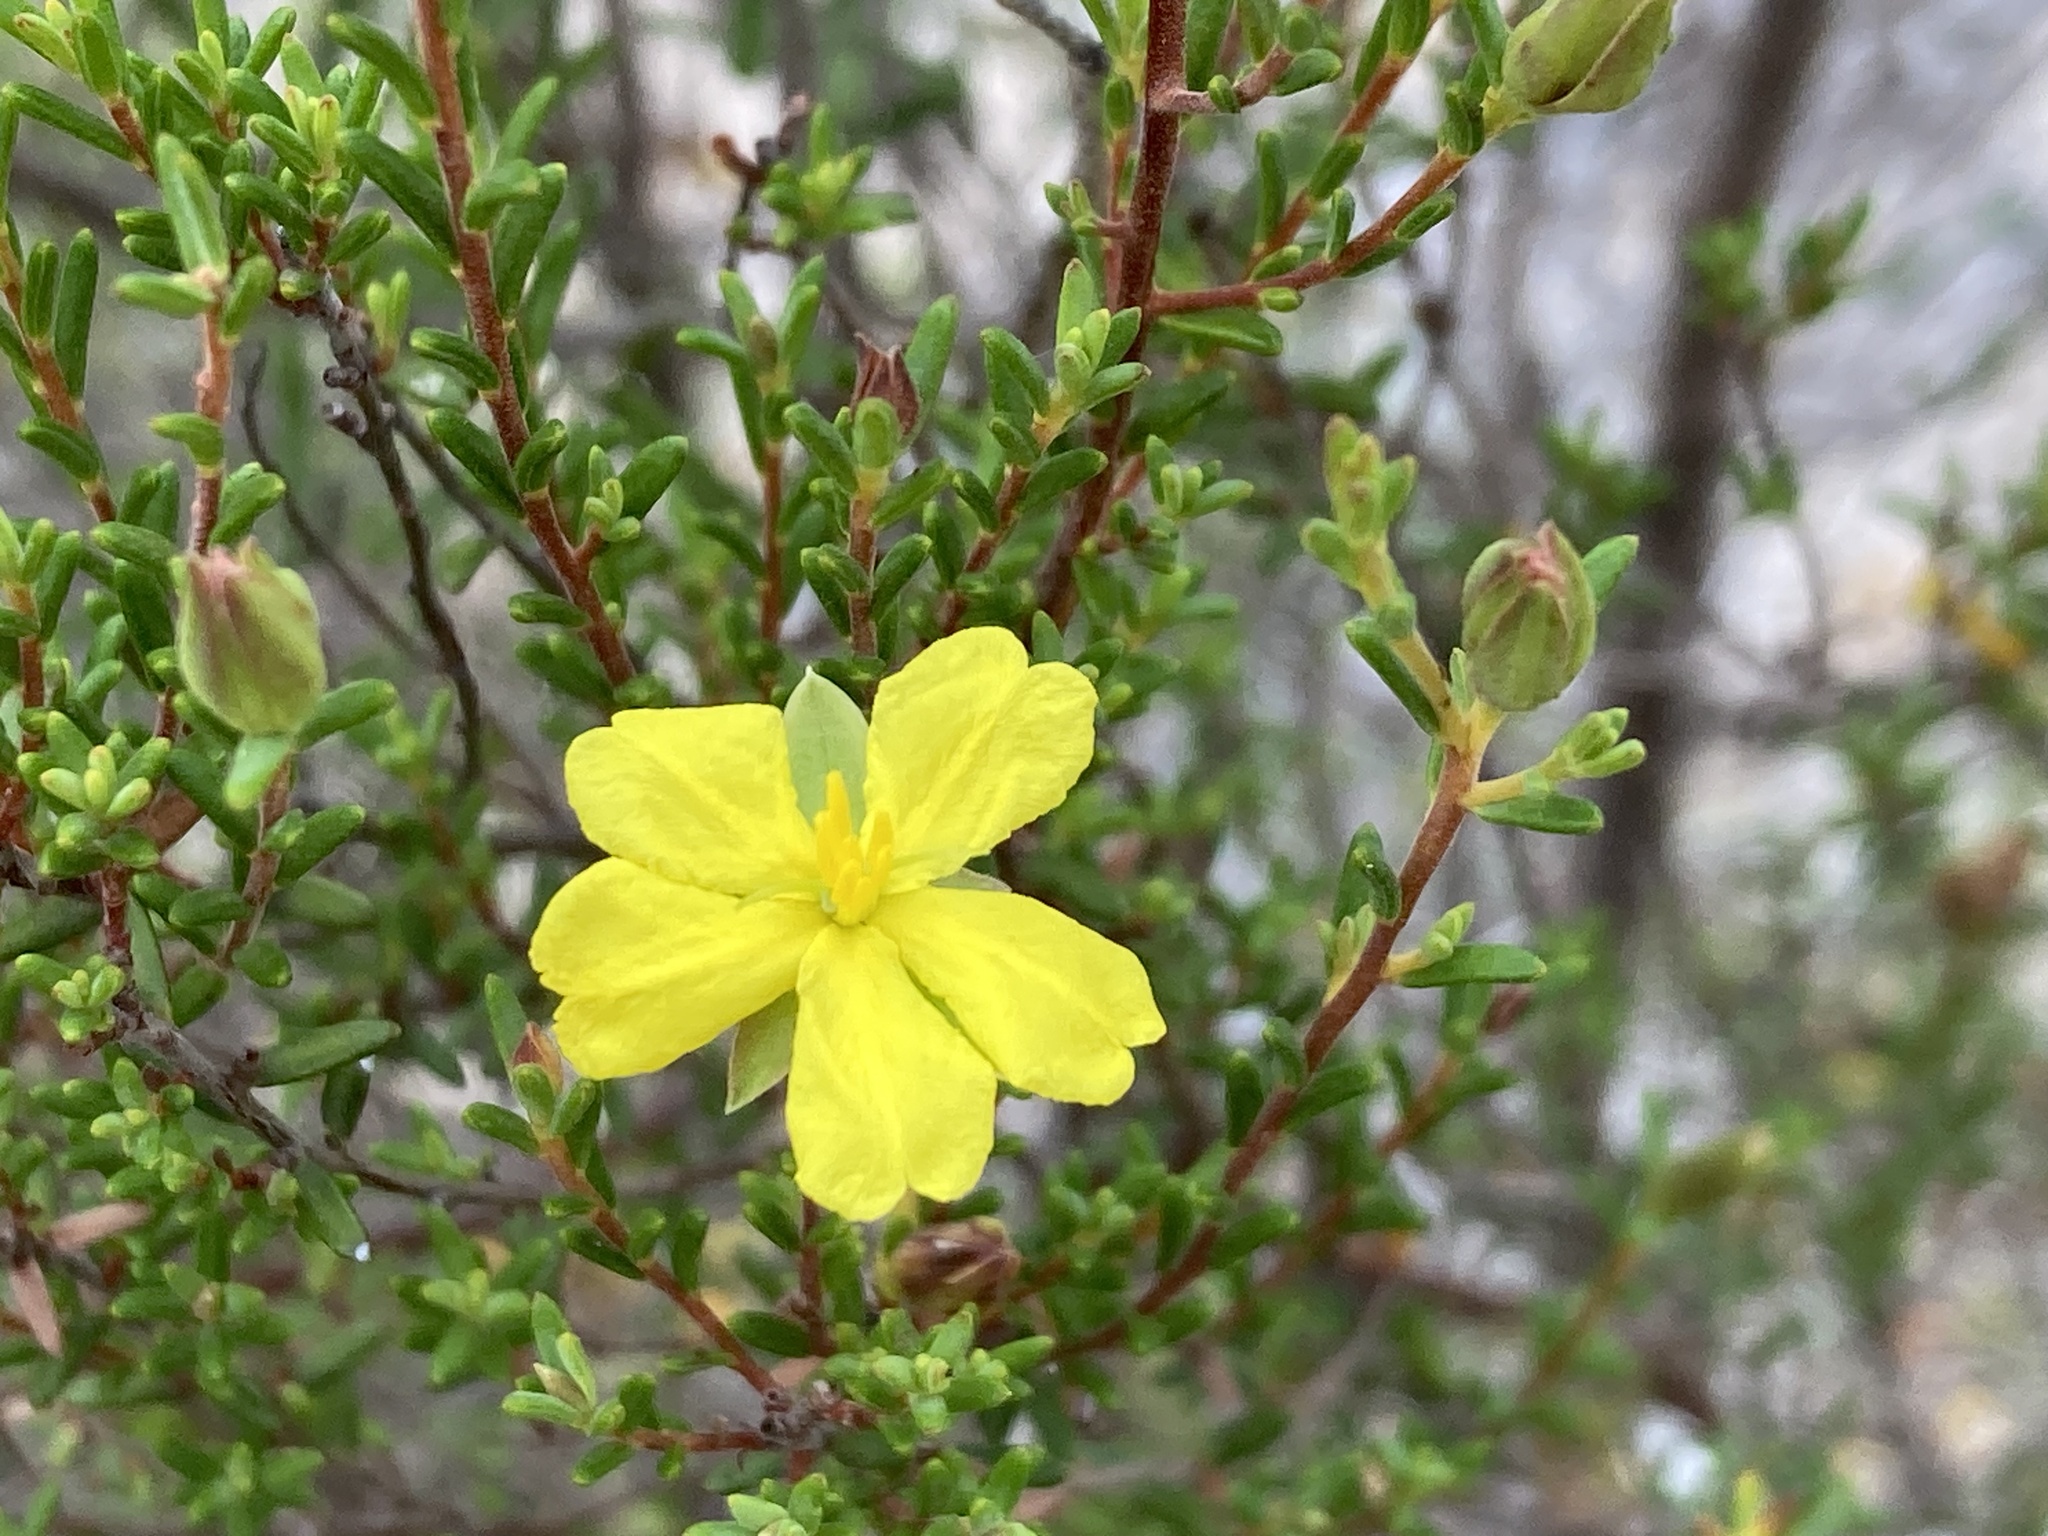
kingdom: Plantae
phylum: Tracheophyta
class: Magnoliopsida
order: Dilleniales
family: Dilleniaceae
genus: Hibbertia
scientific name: Hibbertia devitata
